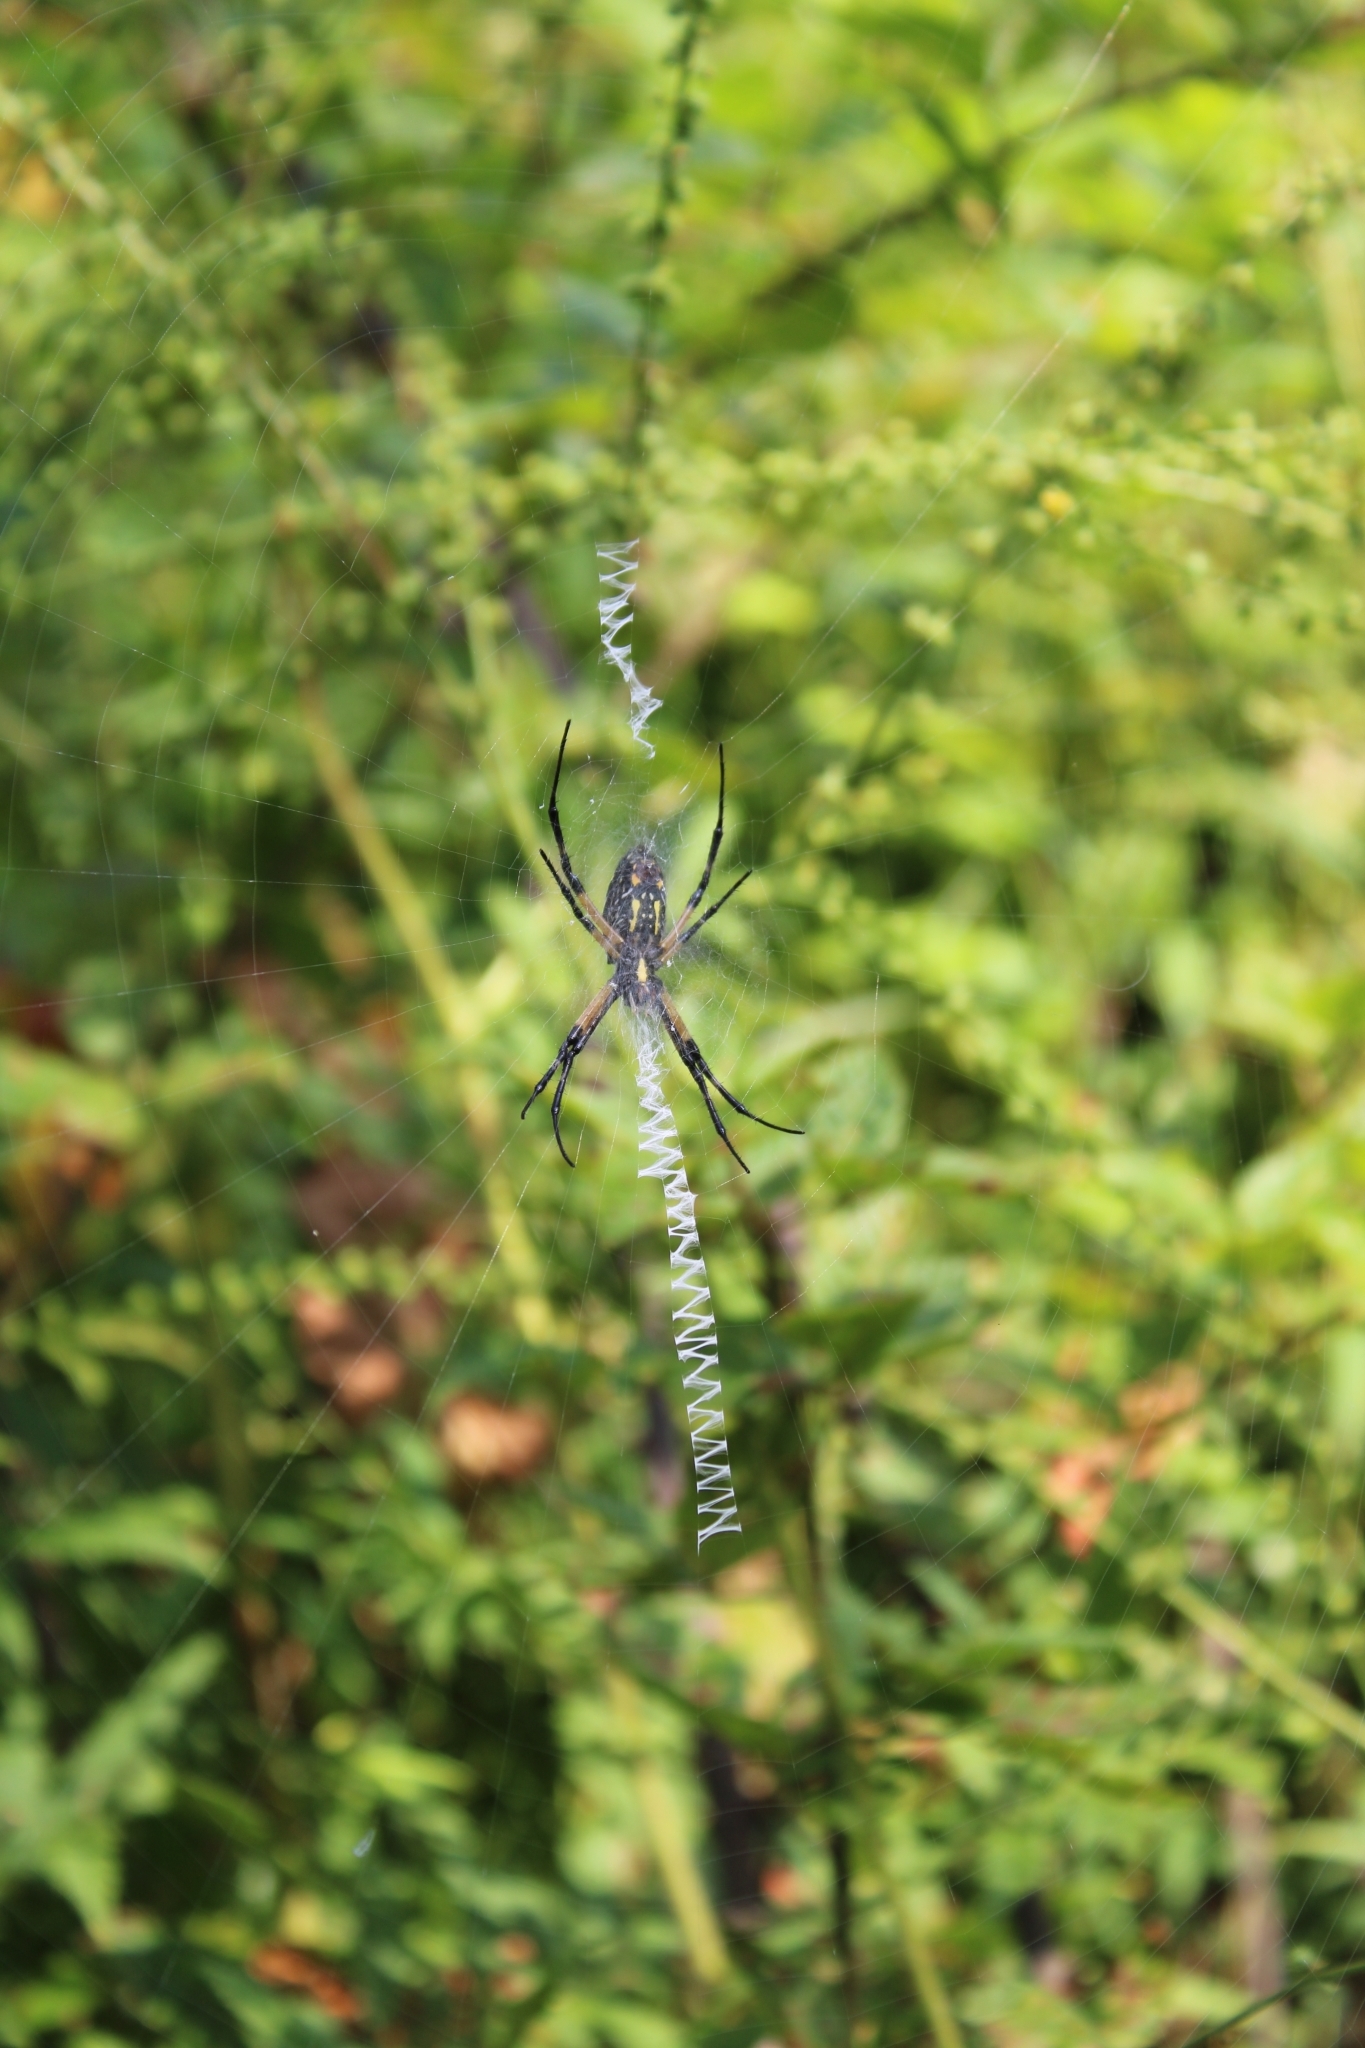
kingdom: Animalia
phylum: Arthropoda
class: Arachnida
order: Araneae
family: Araneidae
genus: Argiope
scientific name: Argiope aurantia
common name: Orb weavers
